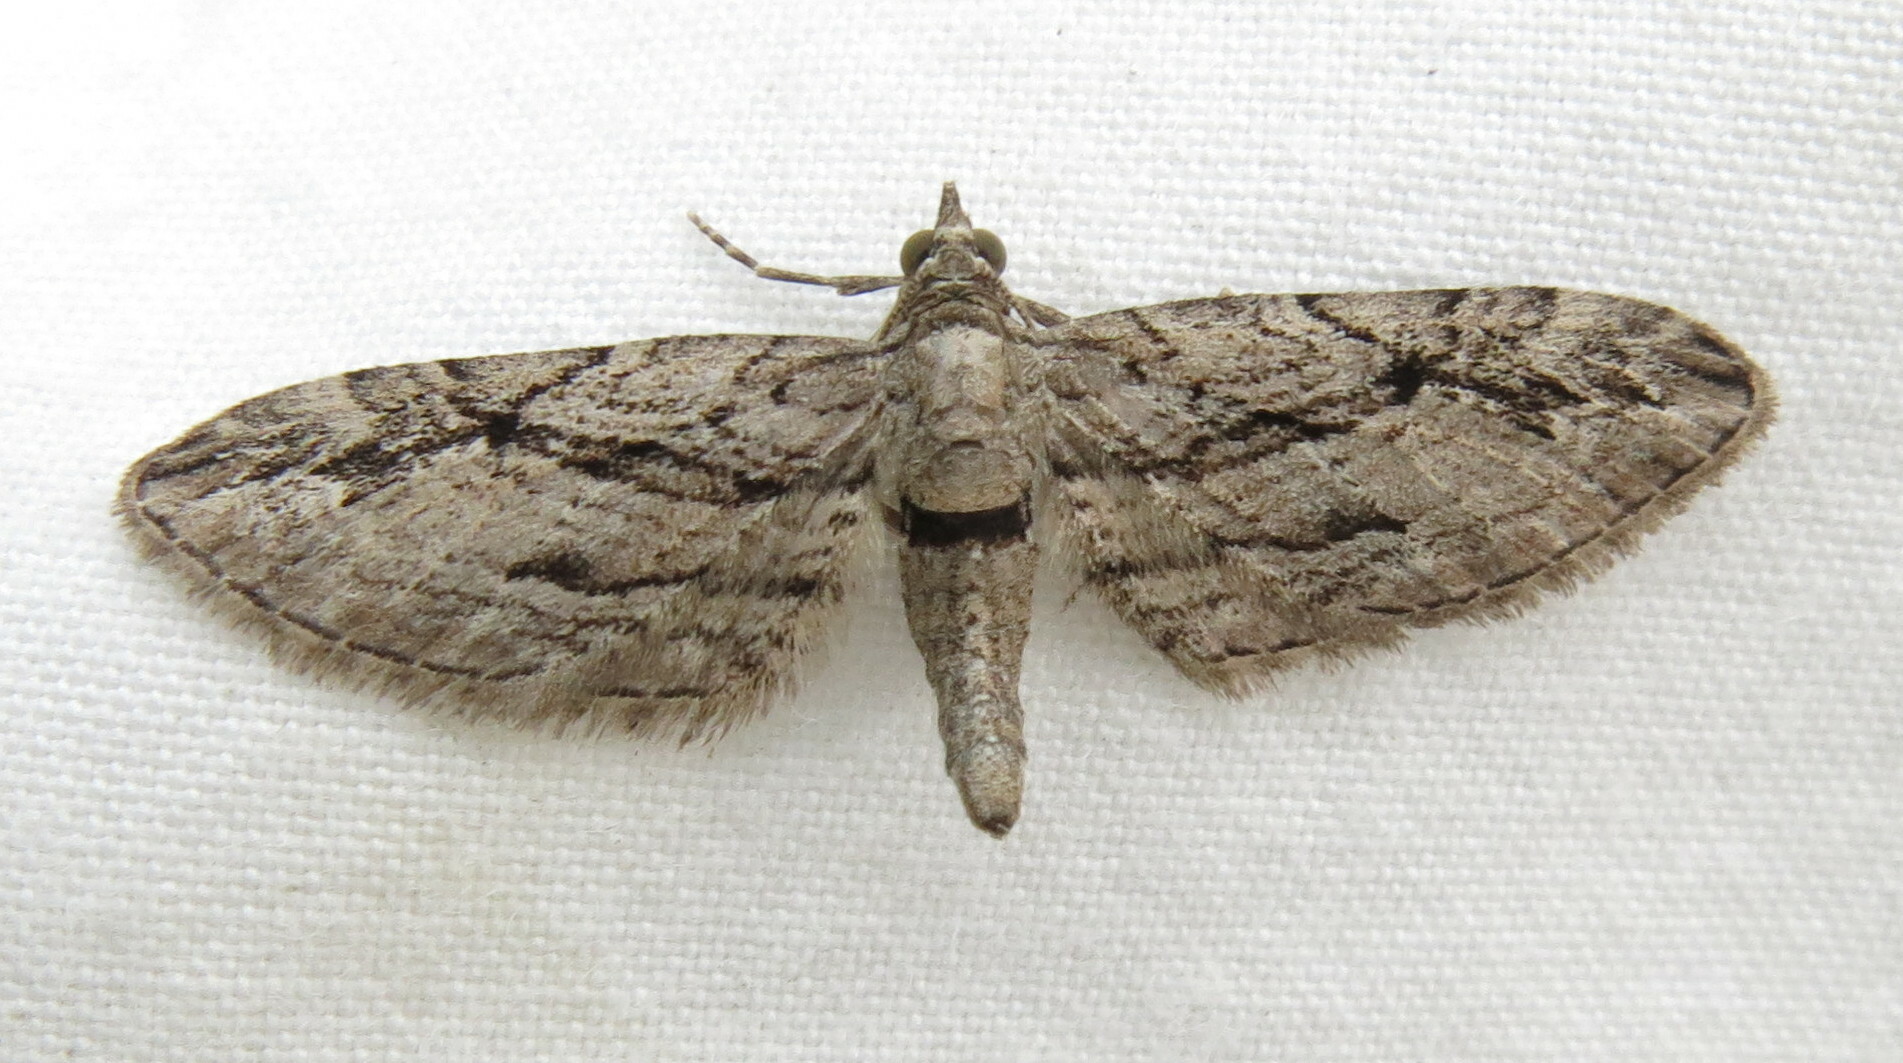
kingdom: Animalia
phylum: Arthropoda
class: Insecta
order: Lepidoptera
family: Geometridae
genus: Eupithecia
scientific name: Eupithecia phoeniceata
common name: Cypress pug
